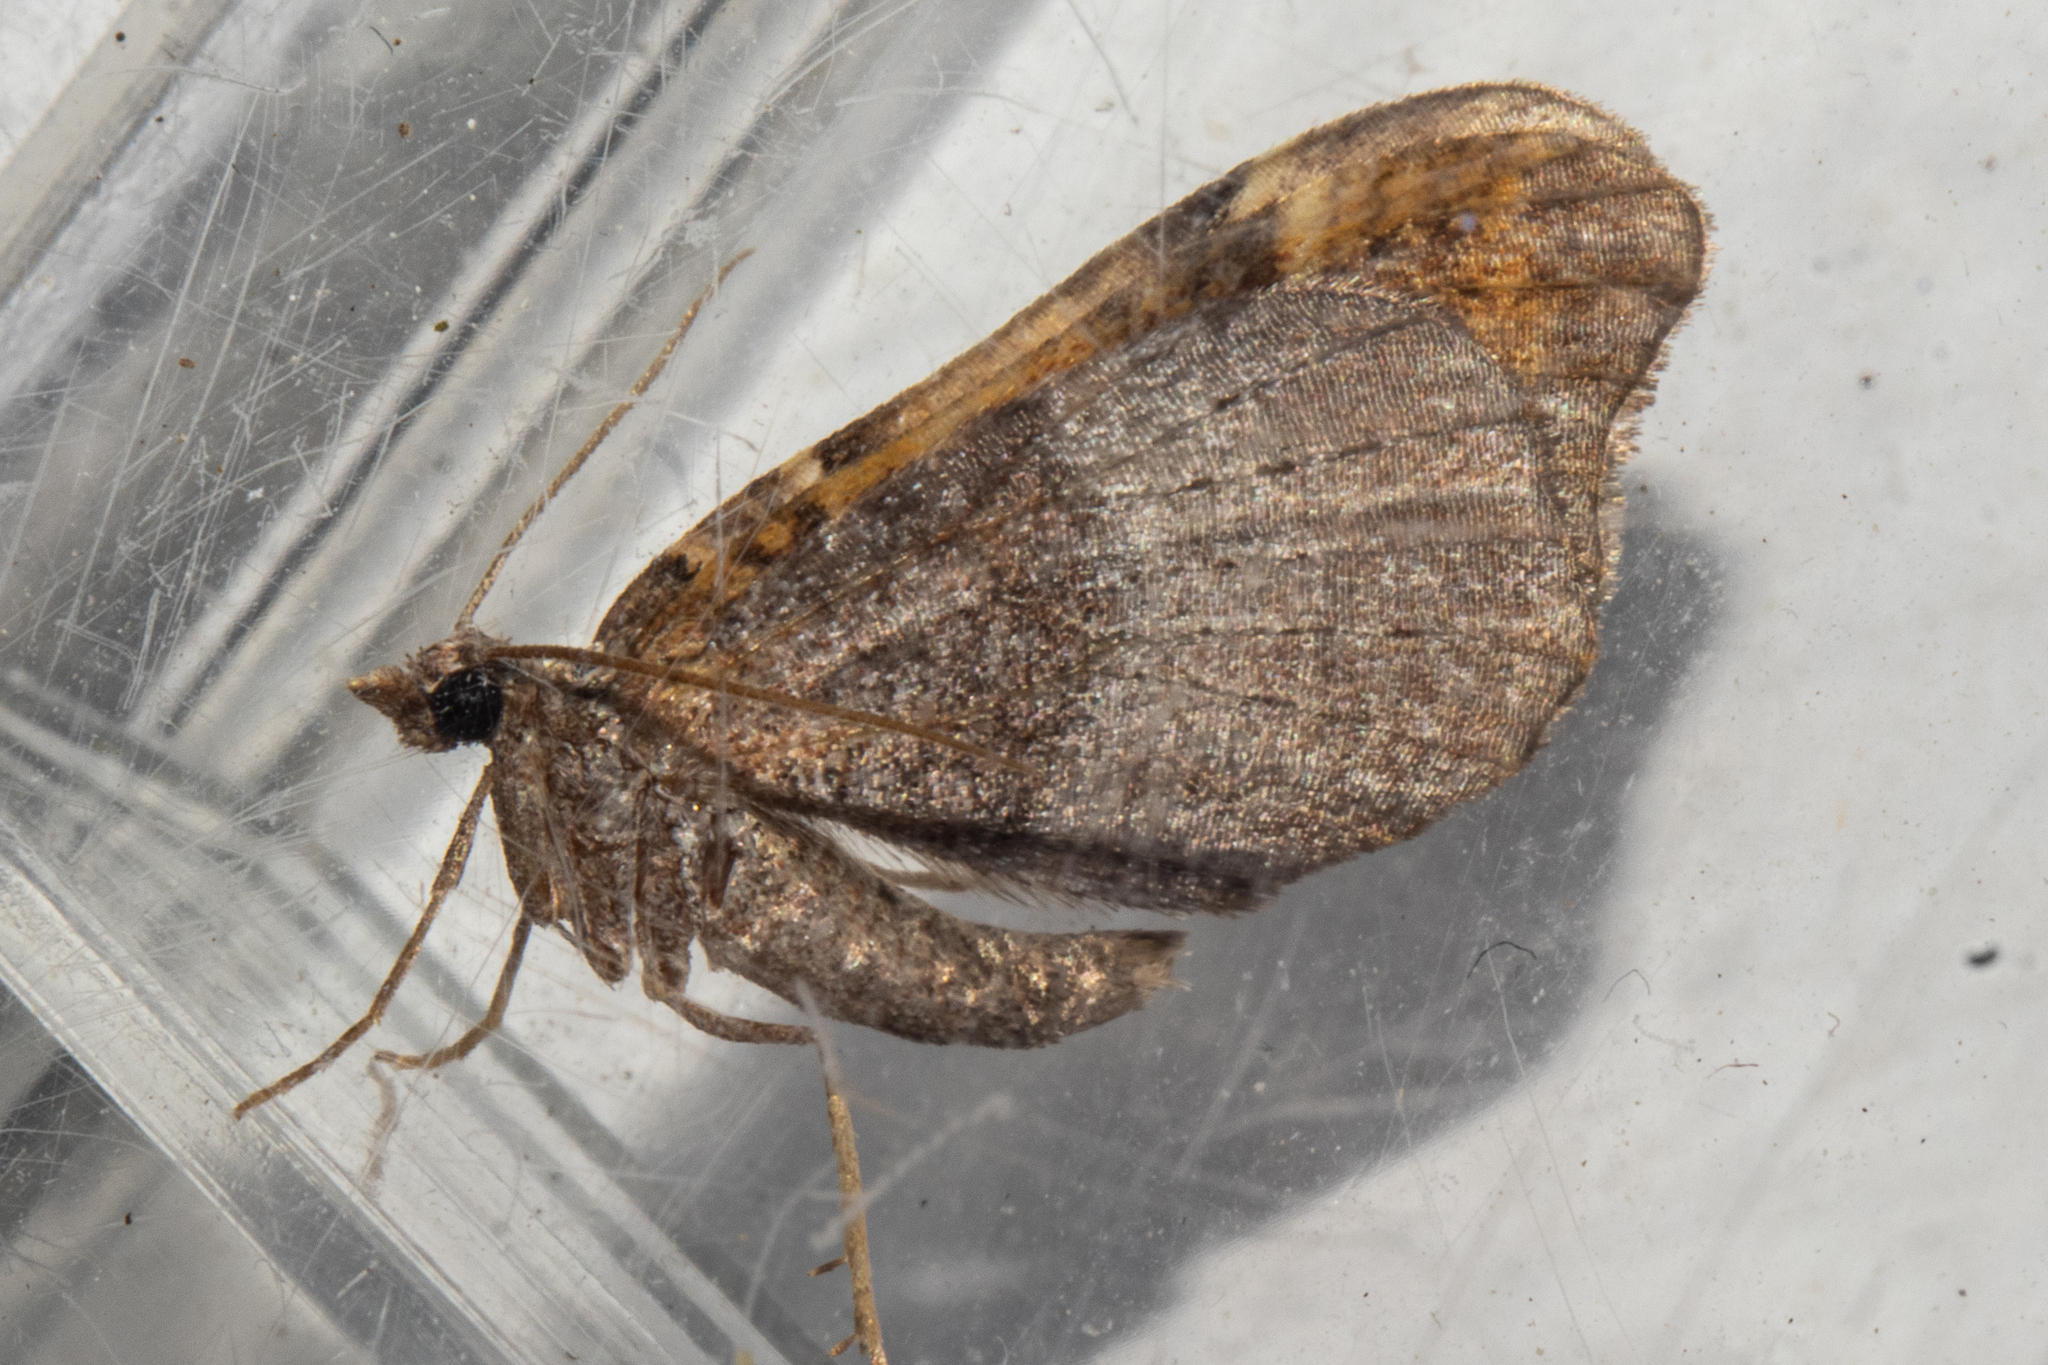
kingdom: Animalia
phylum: Arthropoda
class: Insecta
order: Lepidoptera
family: Geometridae
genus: Helastia
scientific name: Helastia triphragma
